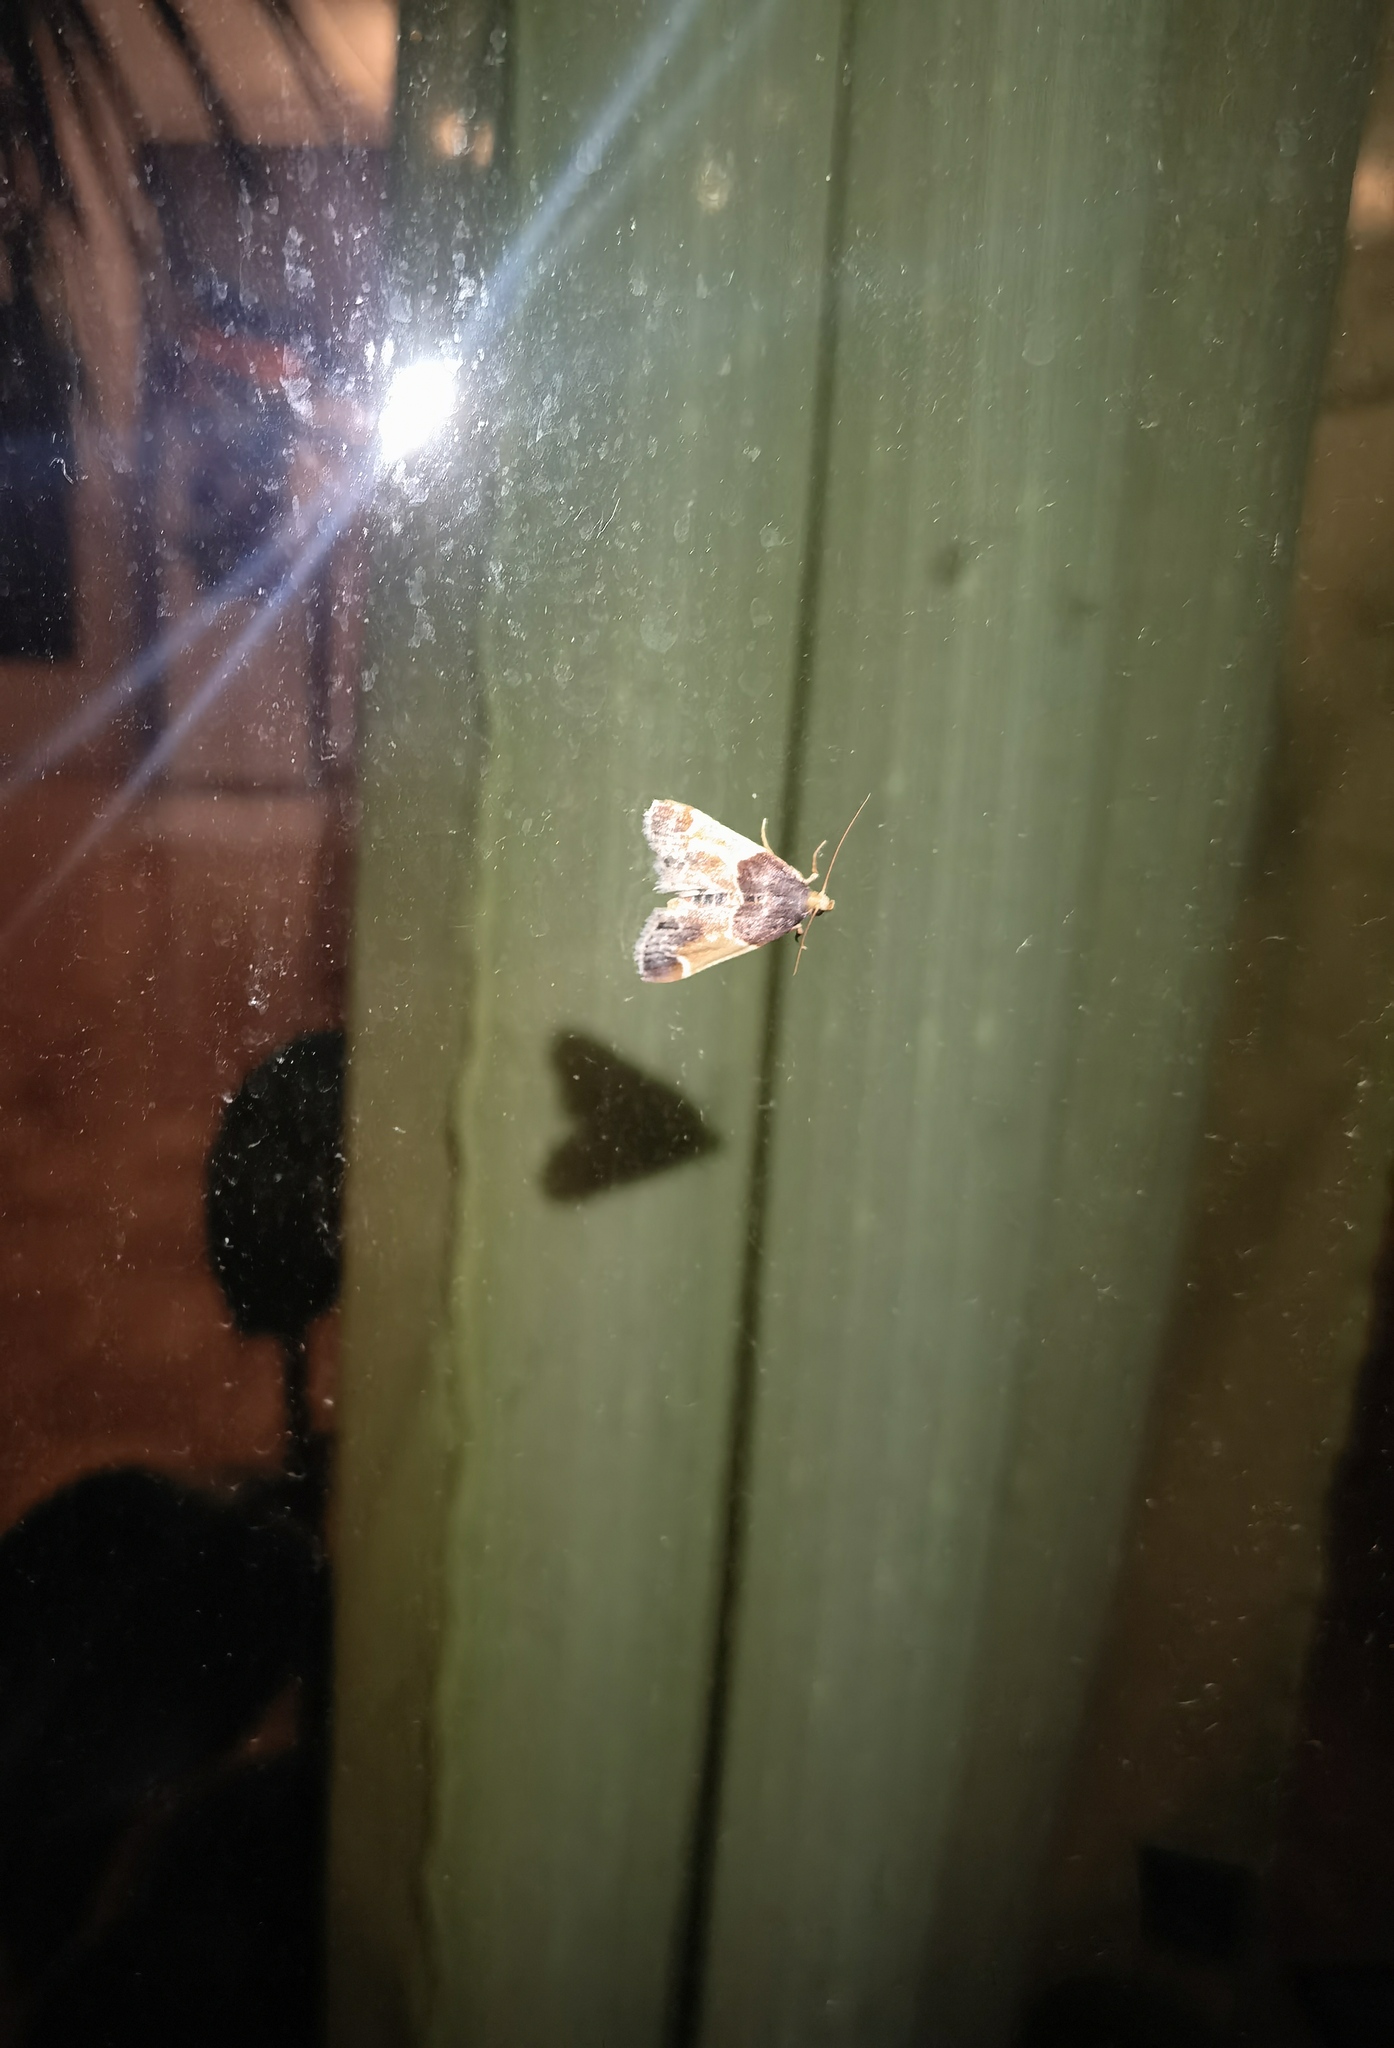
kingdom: Animalia
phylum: Arthropoda
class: Insecta
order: Lepidoptera
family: Pyralidae
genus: Pyralis
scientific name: Pyralis farinalis
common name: Meal moth
